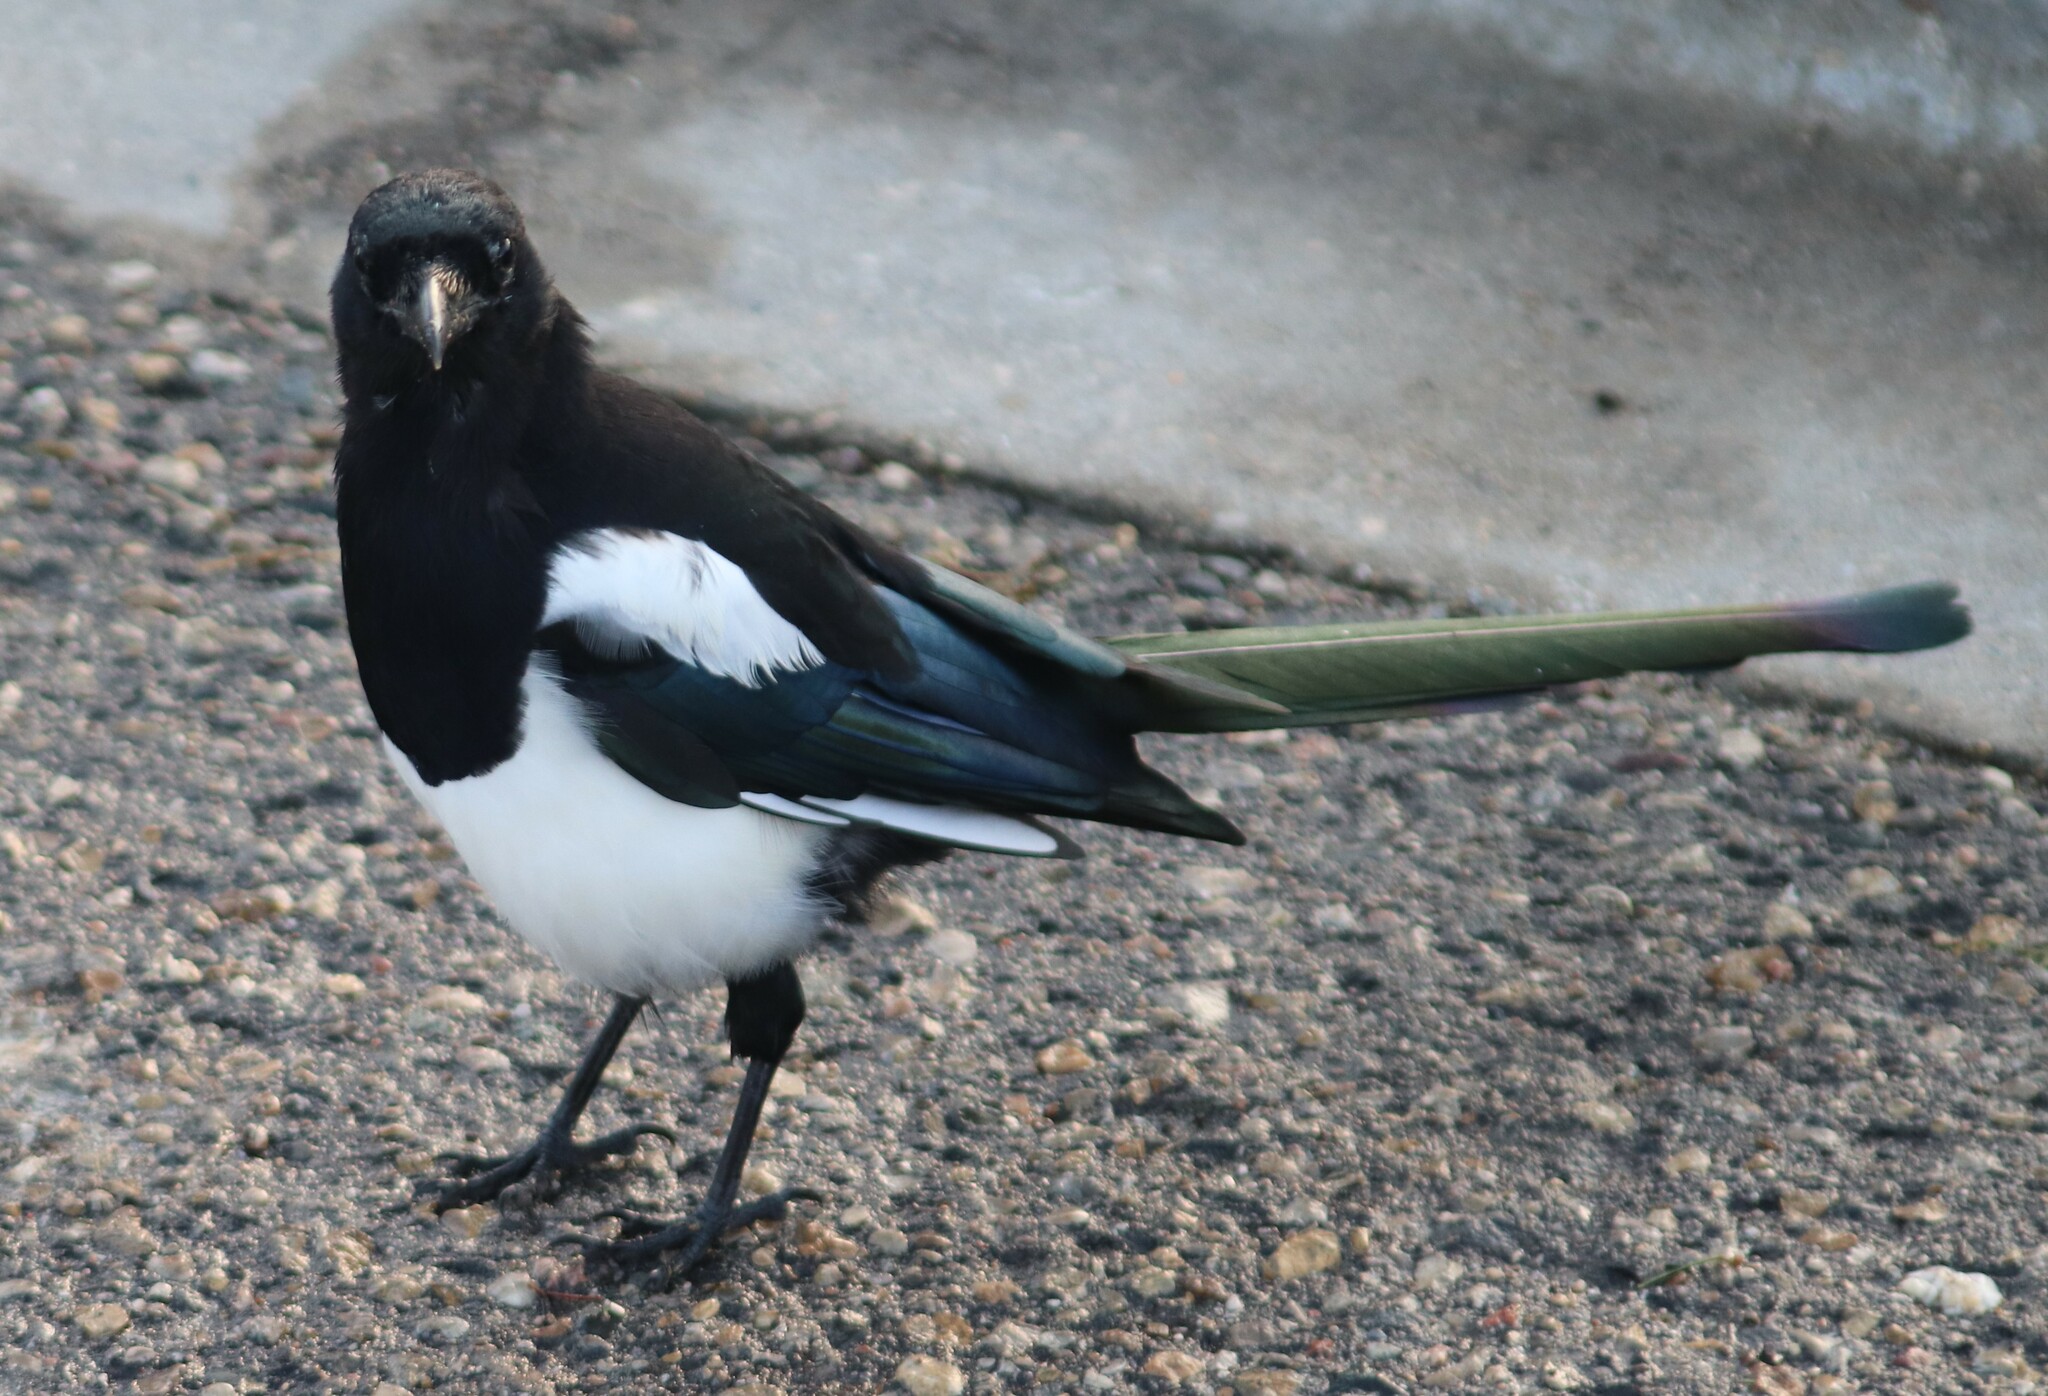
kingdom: Animalia
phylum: Chordata
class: Aves
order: Passeriformes
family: Corvidae
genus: Pica
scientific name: Pica hudsonia
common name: Black-billed magpie
